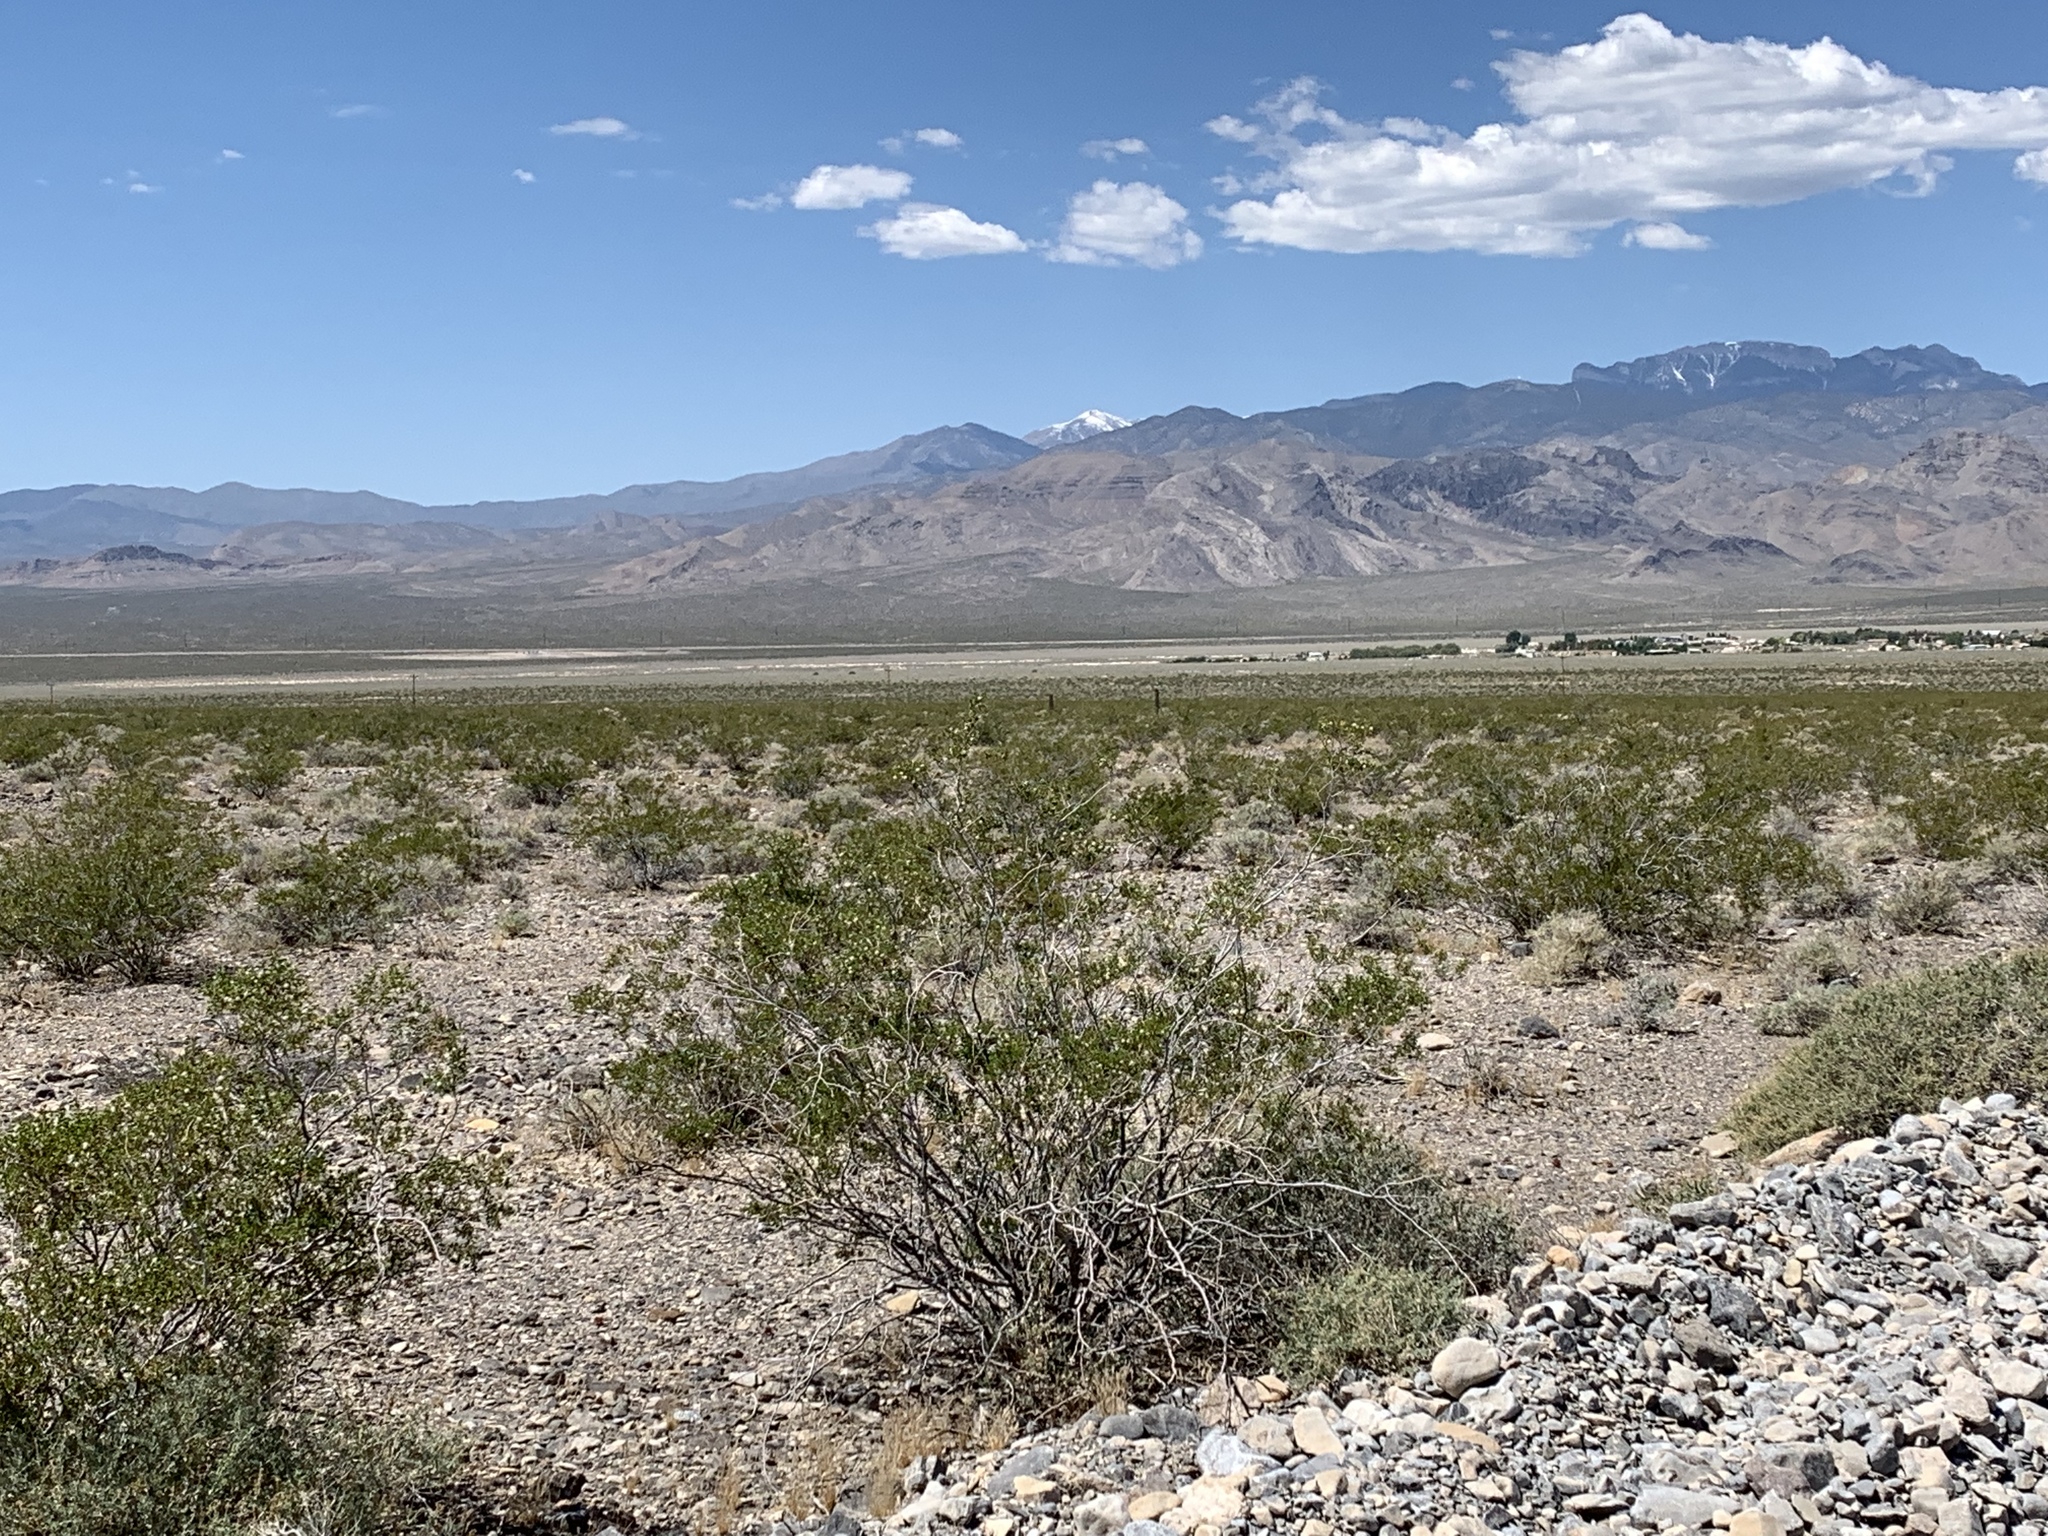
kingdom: Plantae
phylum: Tracheophyta
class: Magnoliopsida
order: Zygophyllales
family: Zygophyllaceae
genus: Larrea
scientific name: Larrea tridentata
